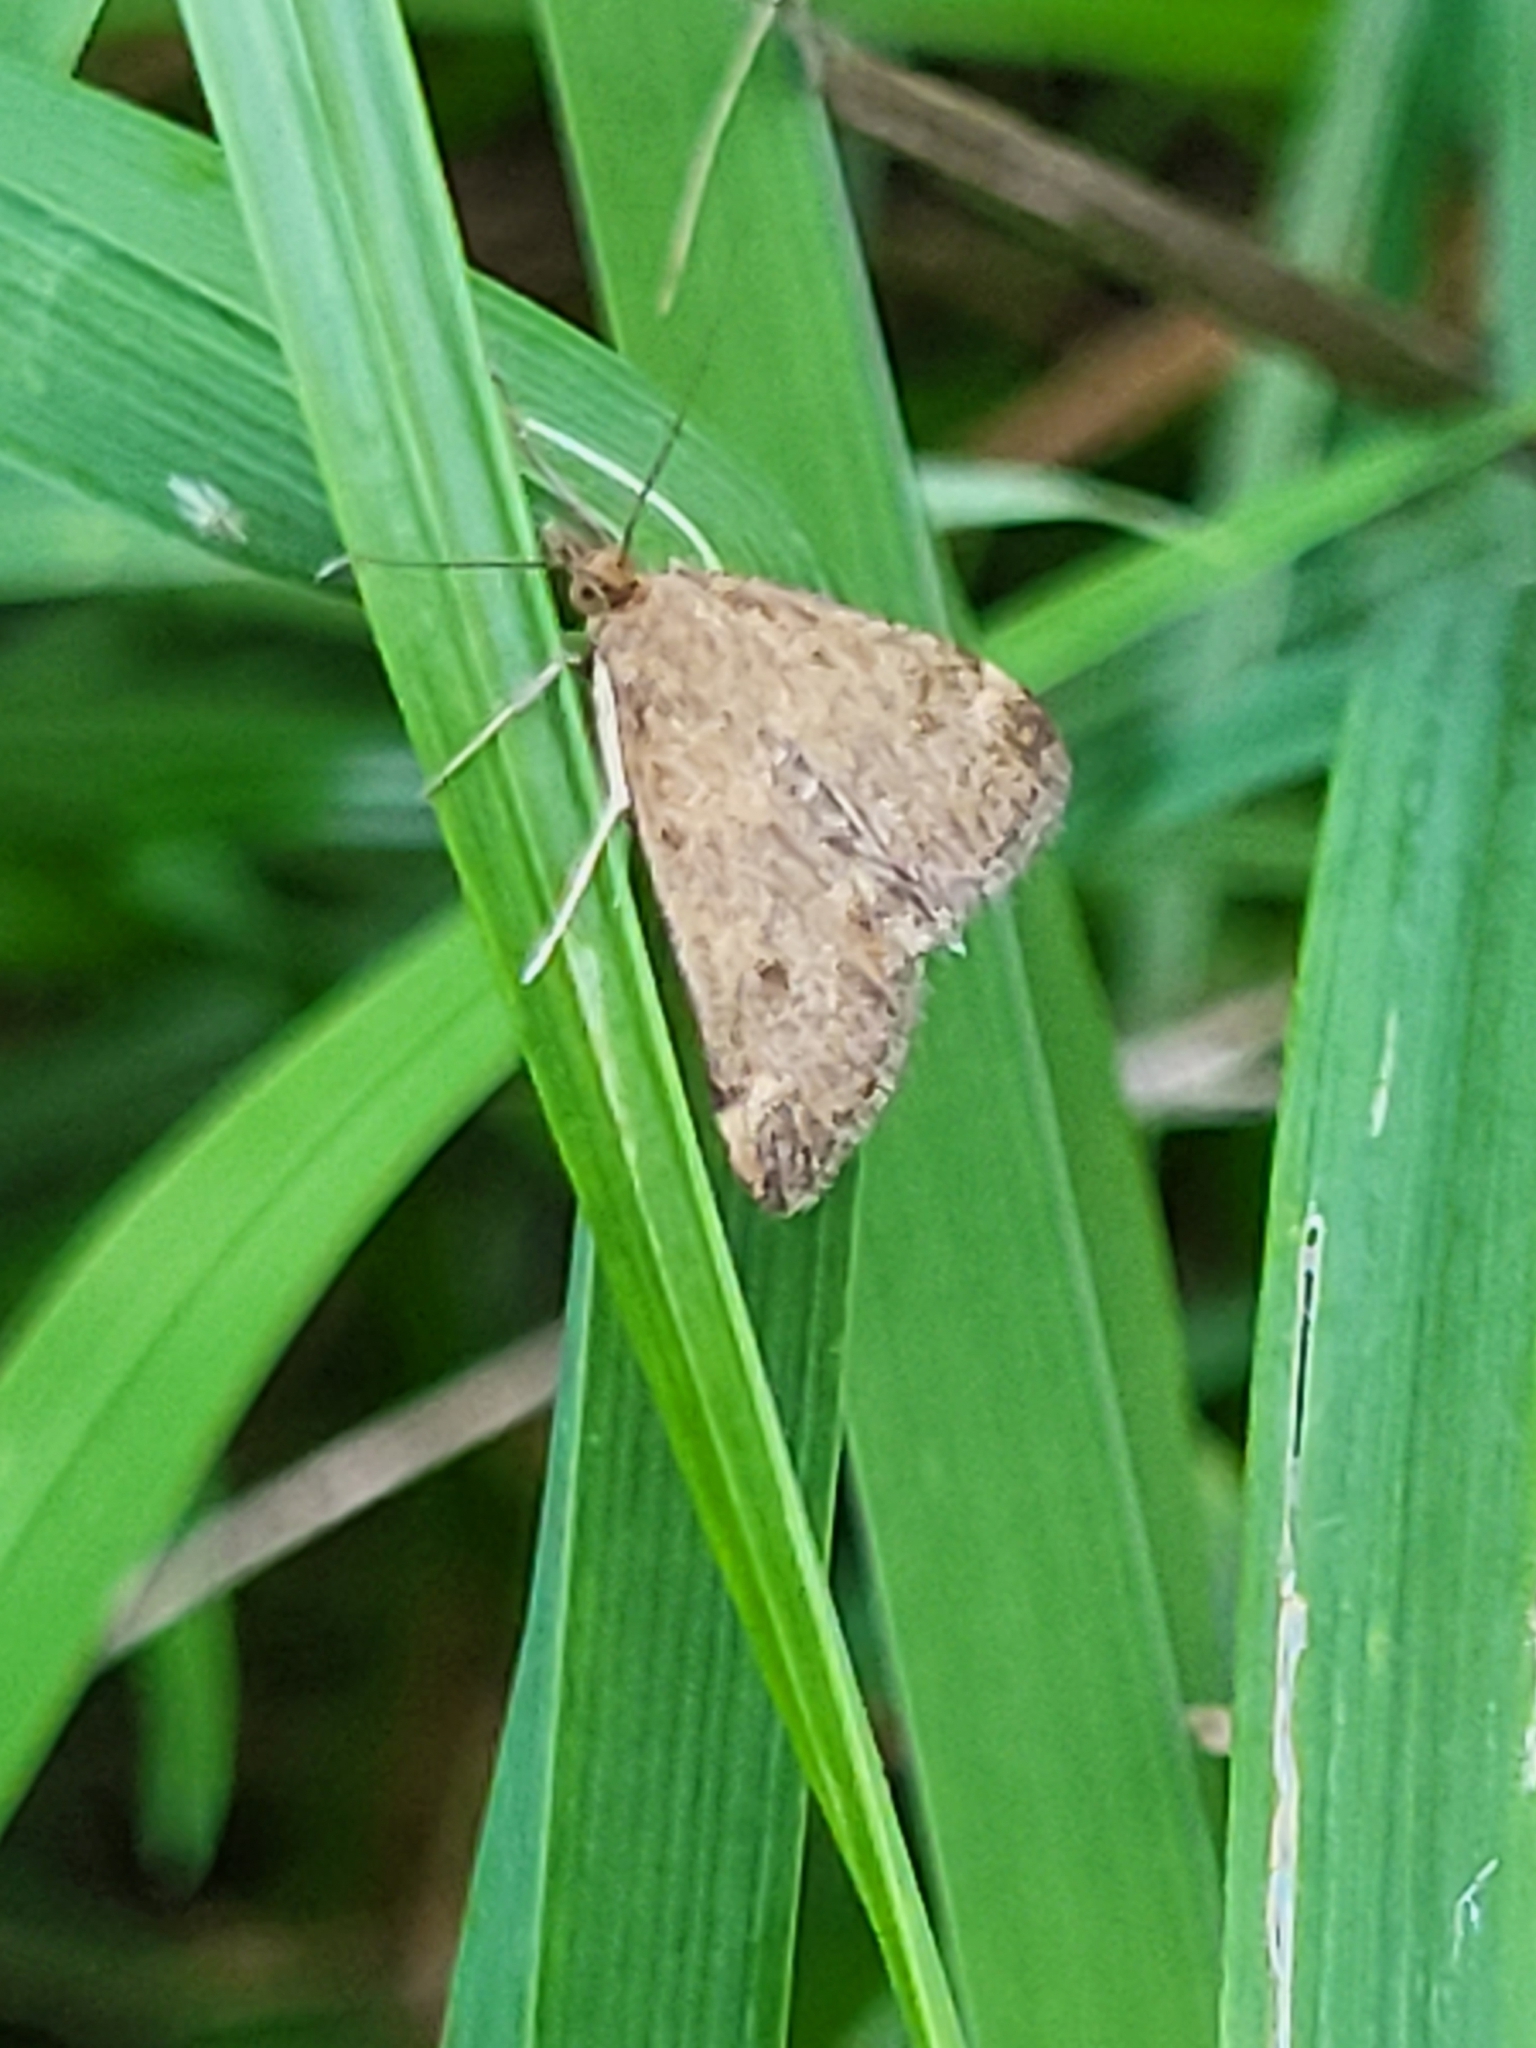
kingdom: Animalia
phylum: Arthropoda
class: Insecta
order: Lepidoptera
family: Crambidae
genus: Pyrausta
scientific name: Pyrausta despicata
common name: Straw-barred pearl
